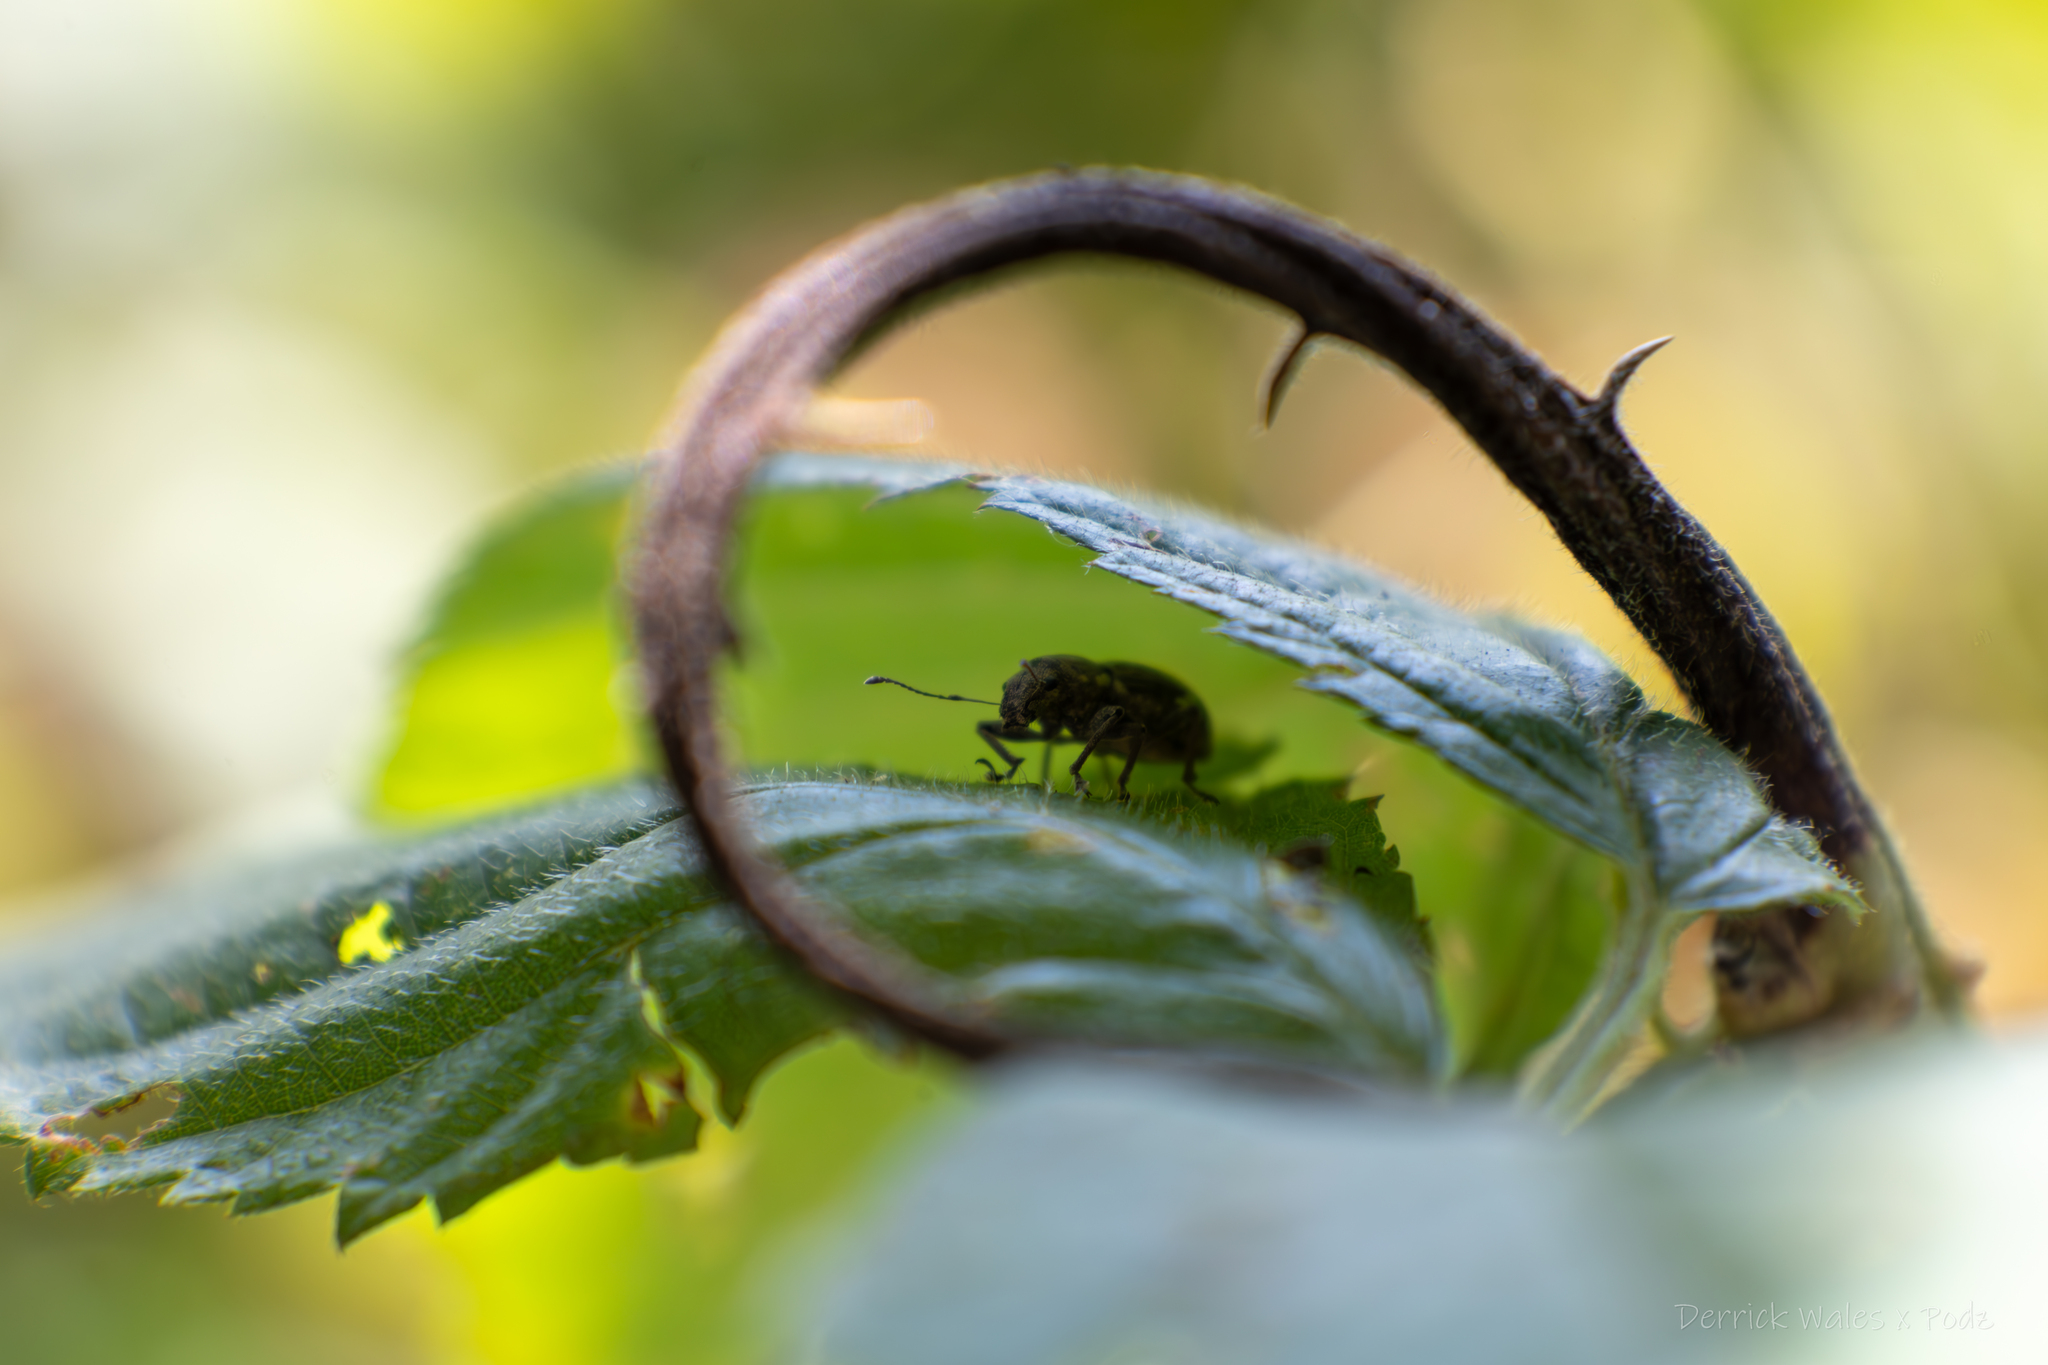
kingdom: Animalia
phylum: Arthropoda
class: Insecta
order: Coleoptera
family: Curculionidae
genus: Naupactus
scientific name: Naupactus cervinus
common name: Fuller rose beetle
